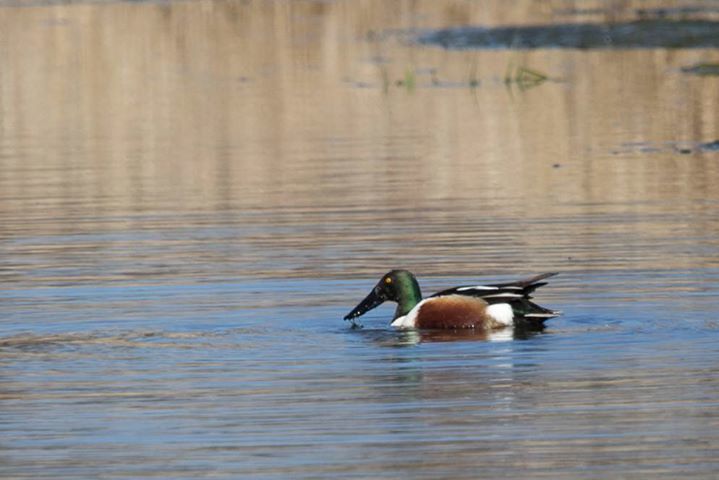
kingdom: Animalia
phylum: Chordata
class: Aves
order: Anseriformes
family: Anatidae
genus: Spatula
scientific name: Spatula clypeata
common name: Northern shoveler
